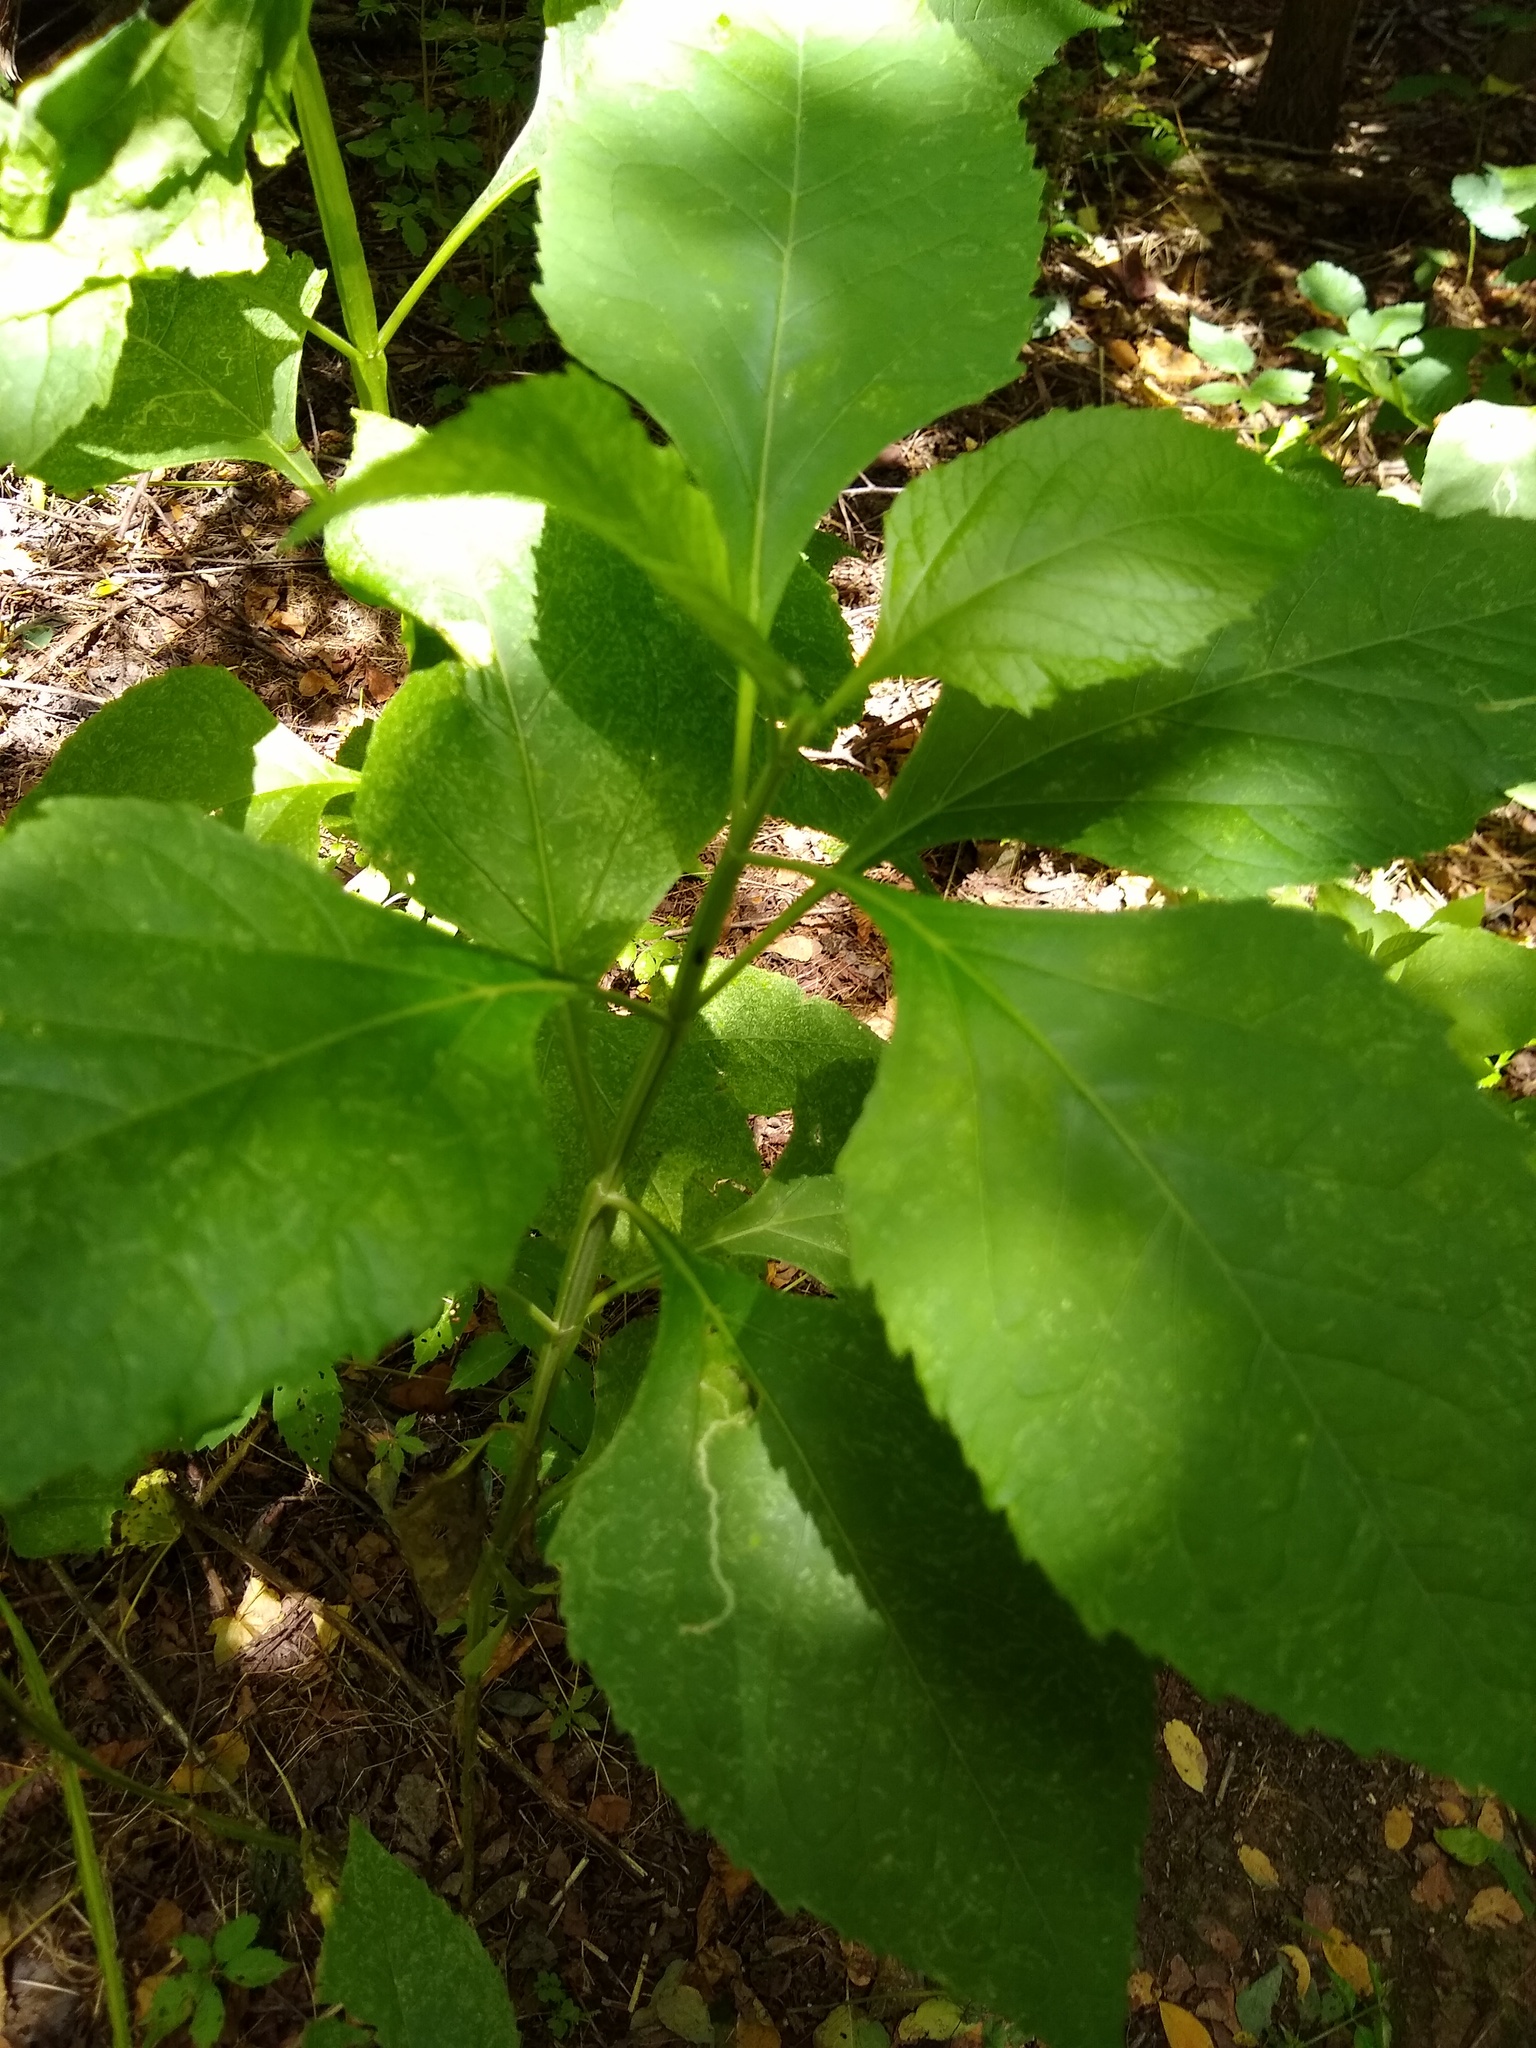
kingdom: Plantae
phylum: Tracheophyta
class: Magnoliopsida
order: Asterales
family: Asteraceae
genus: Verbesina
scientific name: Verbesina occidentalis
